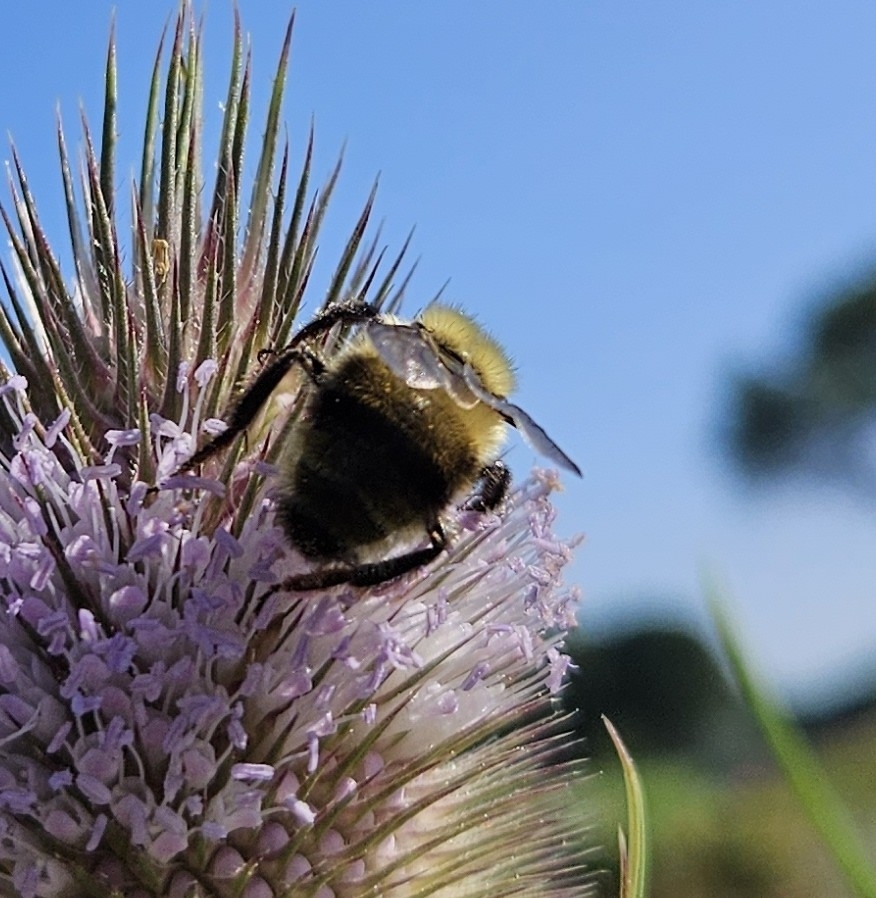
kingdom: Animalia
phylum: Arthropoda
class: Insecta
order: Hymenoptera
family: Apidae
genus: Bombus
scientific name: Bombus bimaculatus
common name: Two-spotted bumble bee
